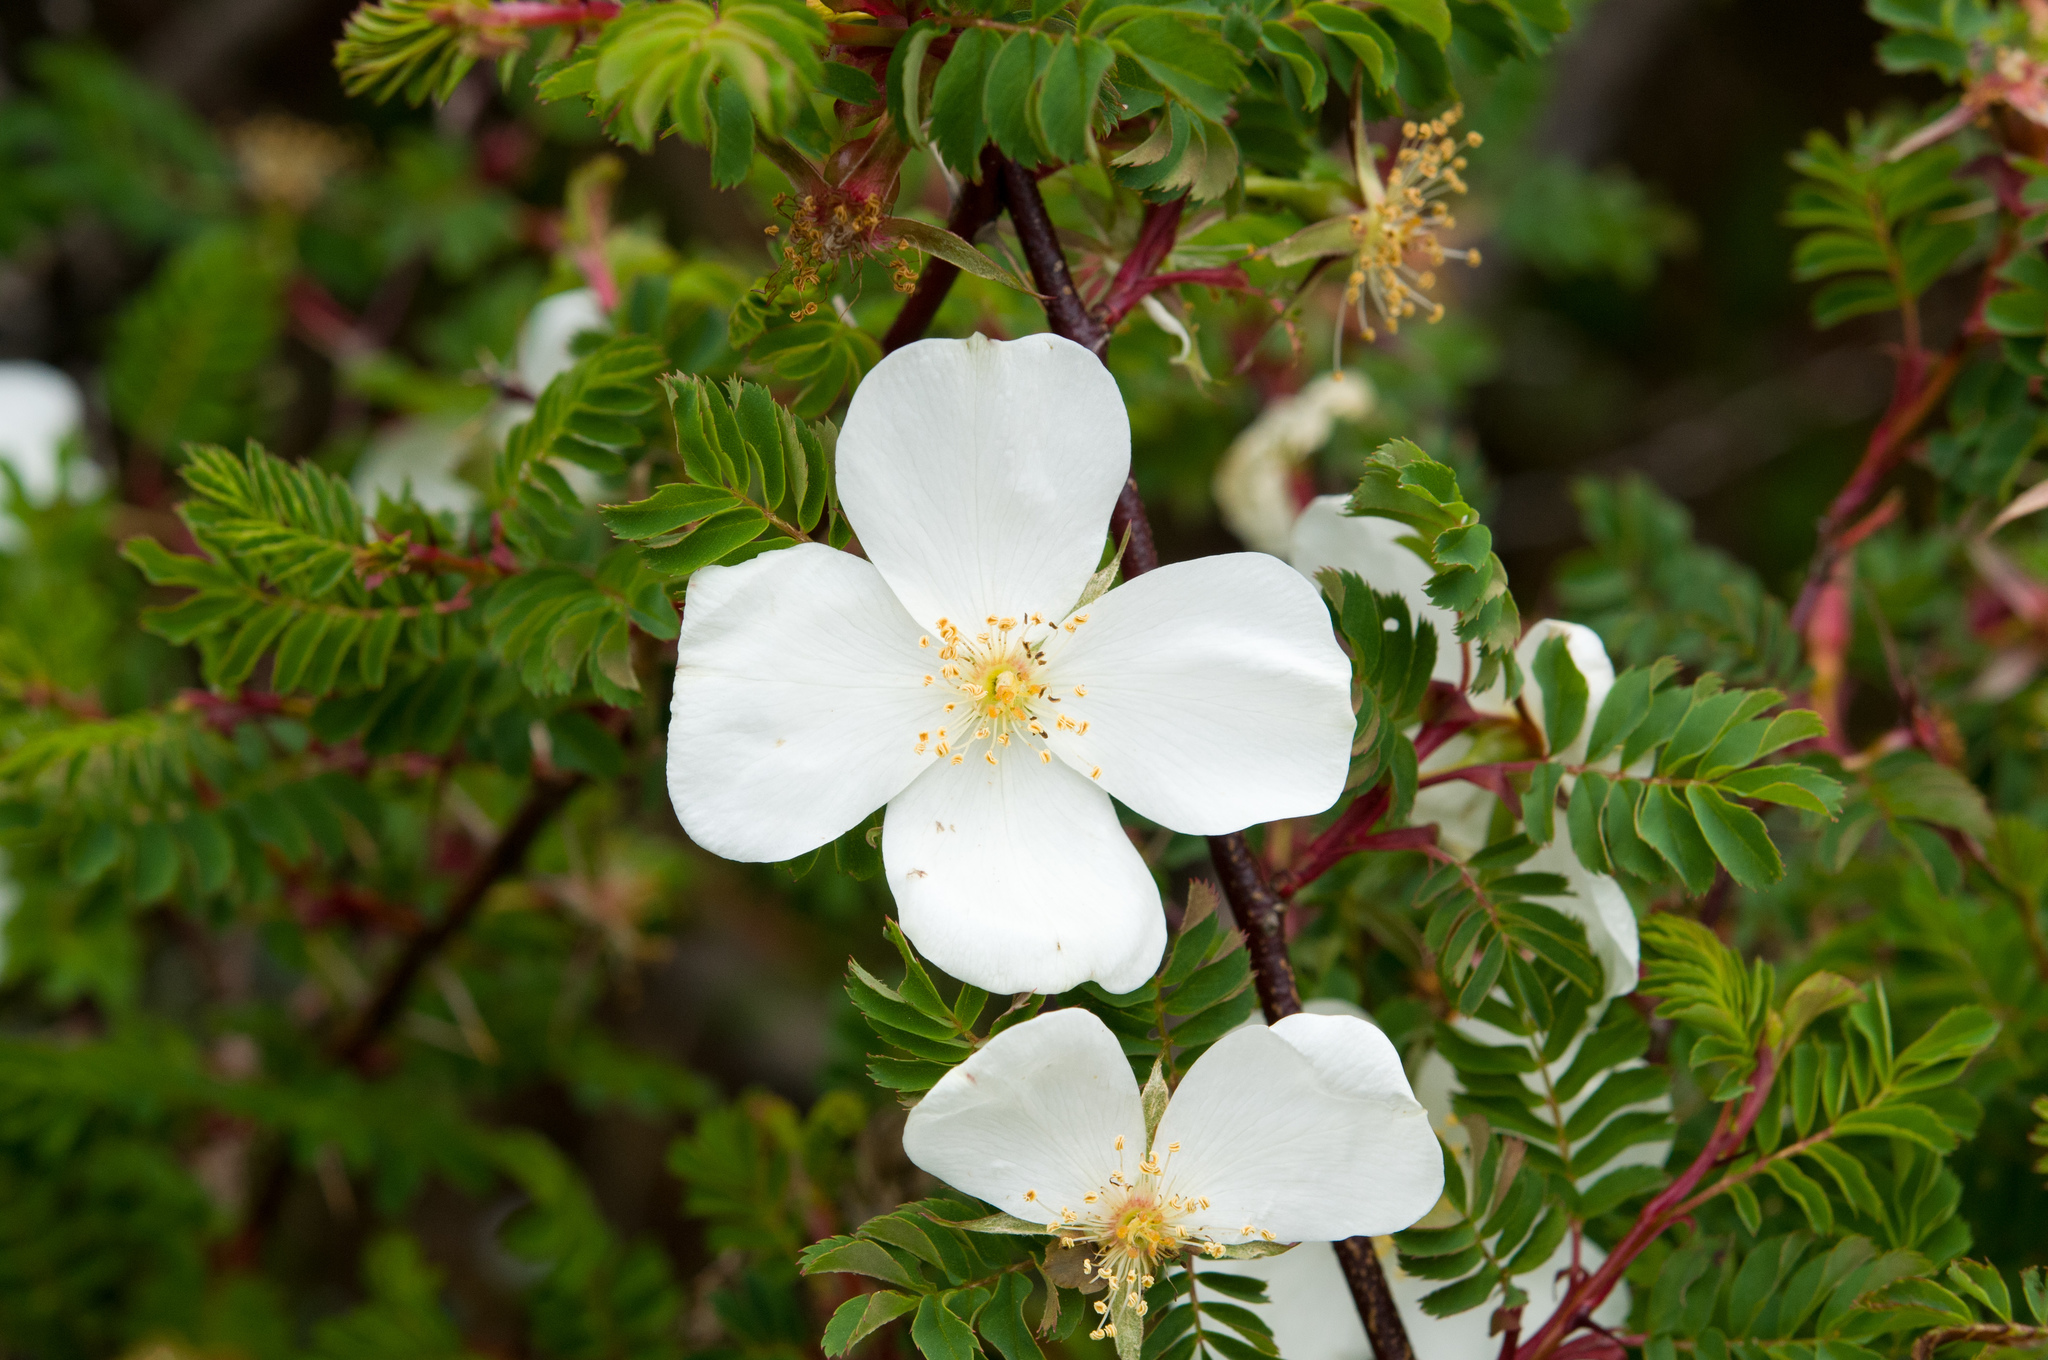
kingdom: Plantae
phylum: Tracheophyta
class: Magnoliopsida
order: Rosales
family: Rosaceae
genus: Rosa
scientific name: Rosa morrisonensis
